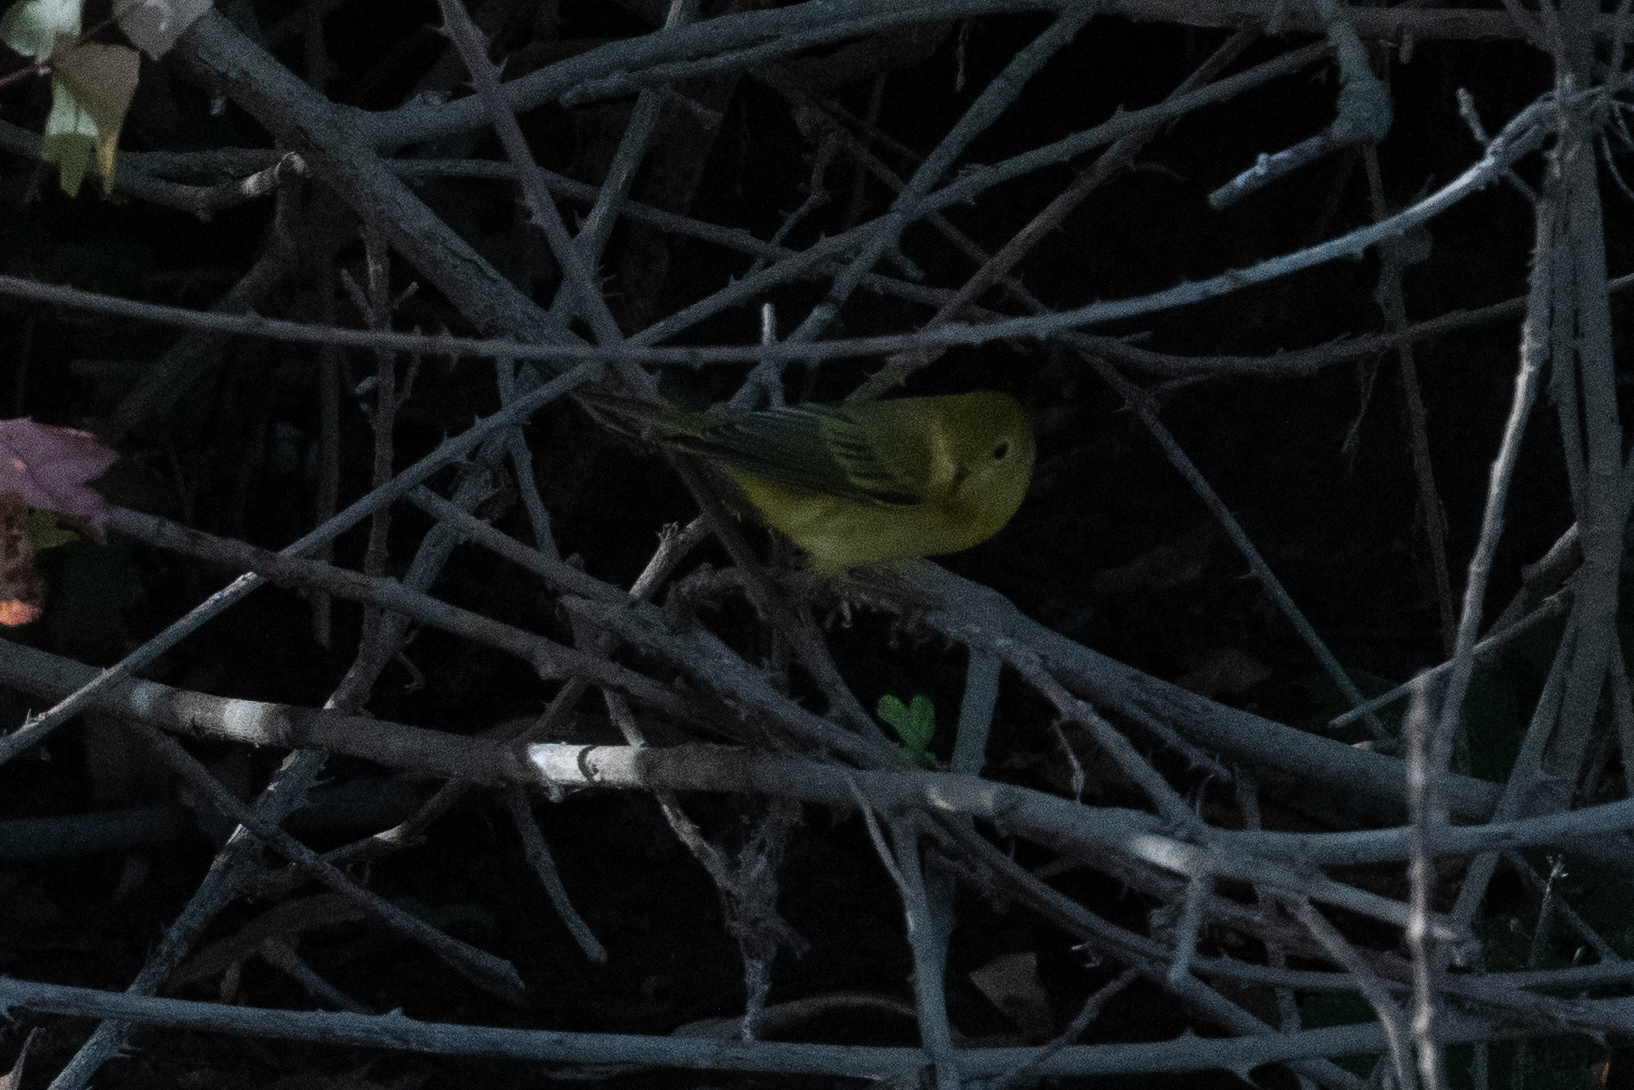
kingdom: Animalia
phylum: Chordata
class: Aves
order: Passeriformes
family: Parulidae
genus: Setophaga
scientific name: Setophaga petechia
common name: Yellow warbler
